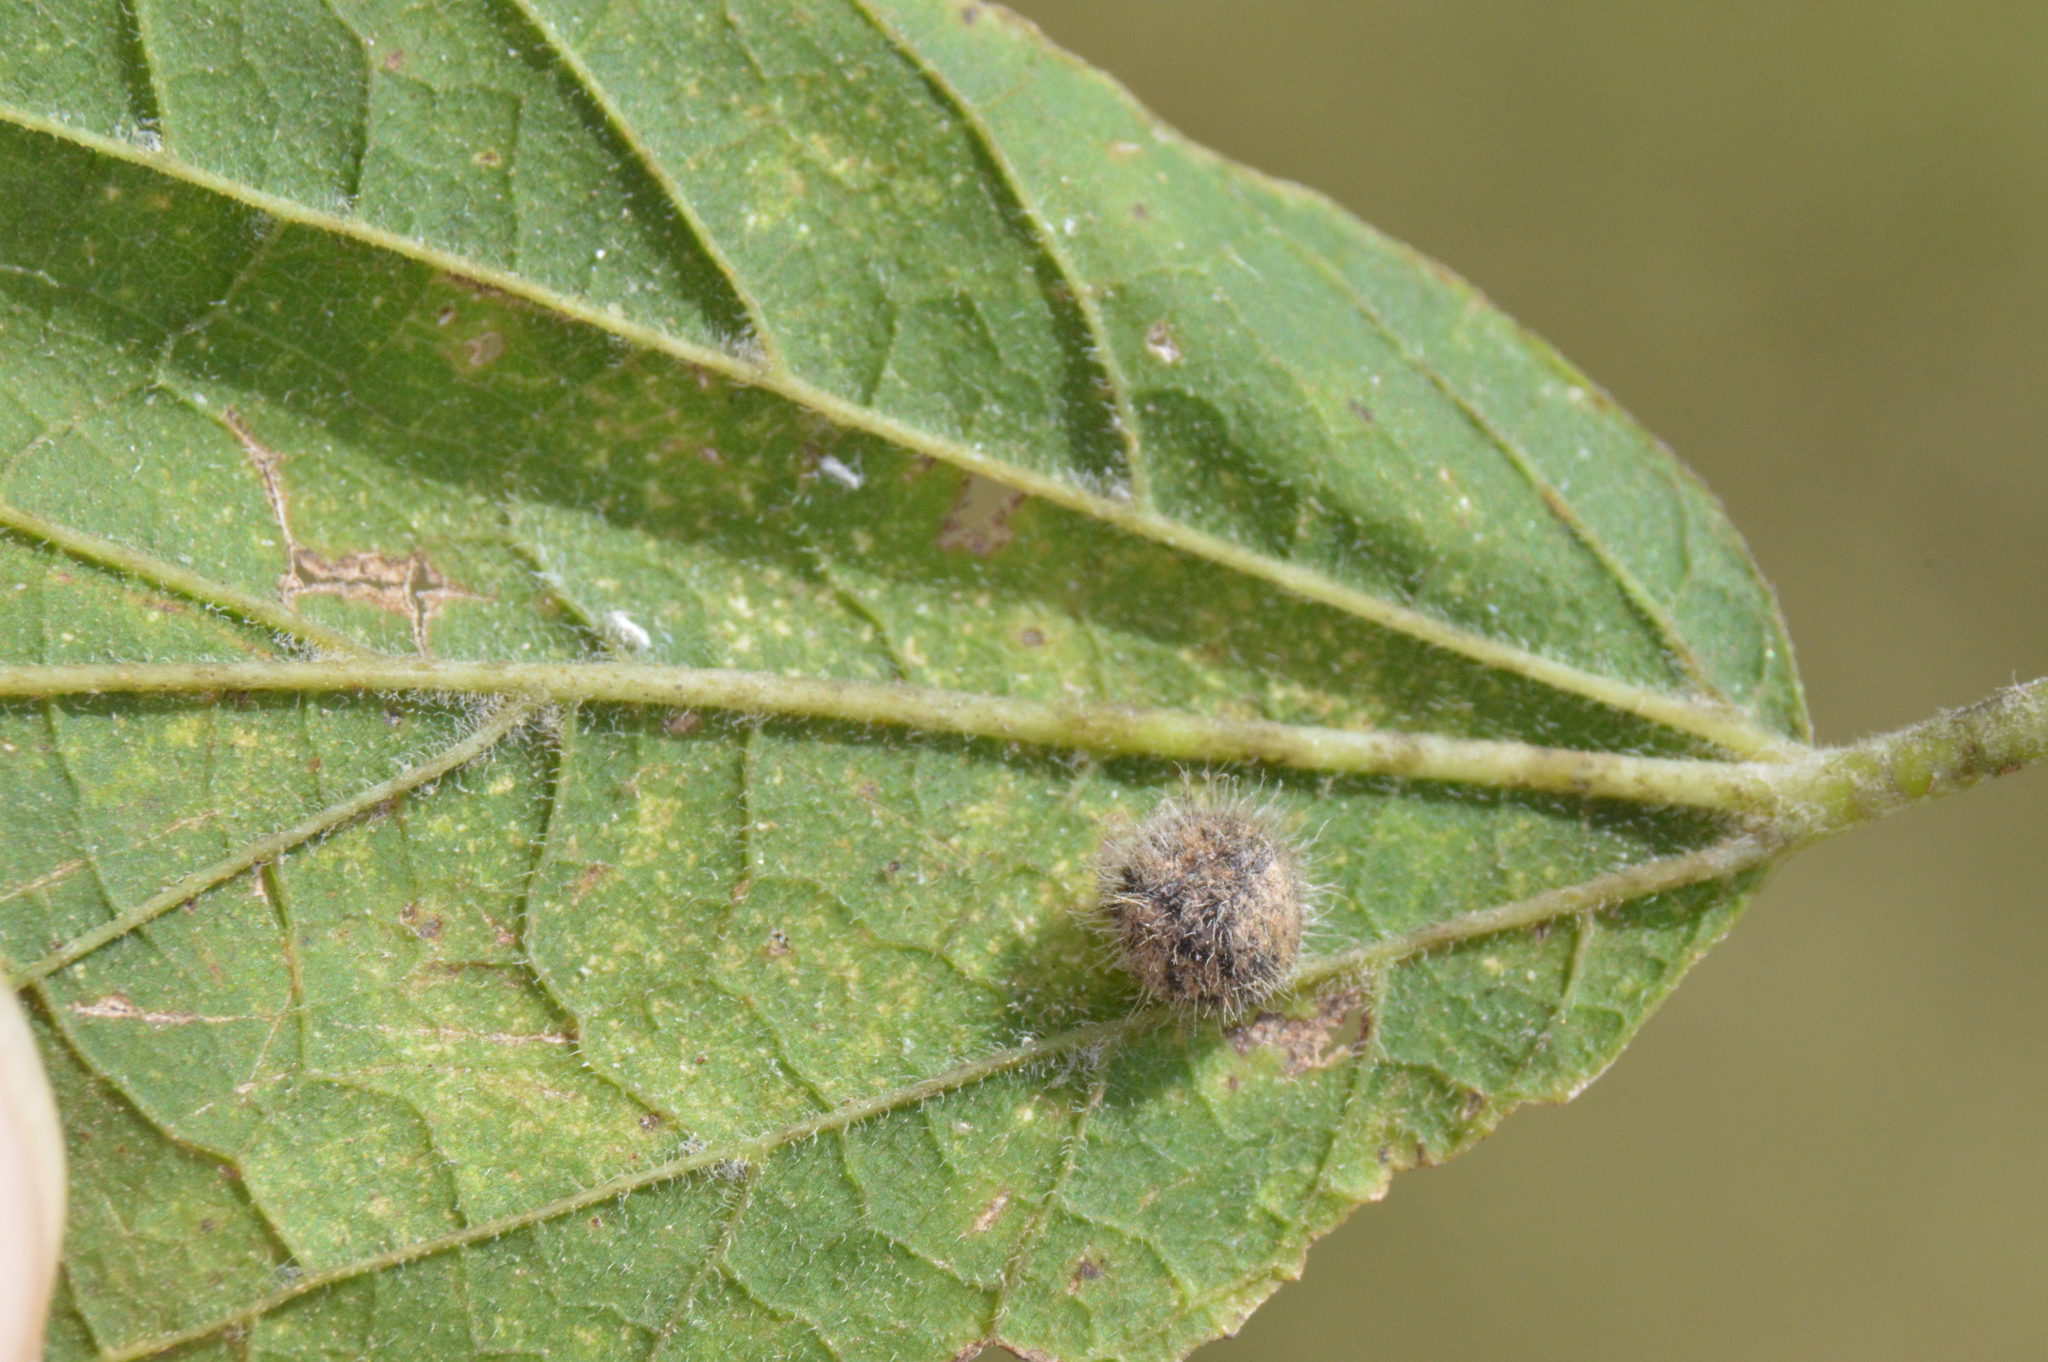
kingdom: Animalia
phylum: Arthropoda
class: Insecta
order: Diptera
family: Cecidomyiidae
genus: Celticecis
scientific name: Celticecis pubescens
